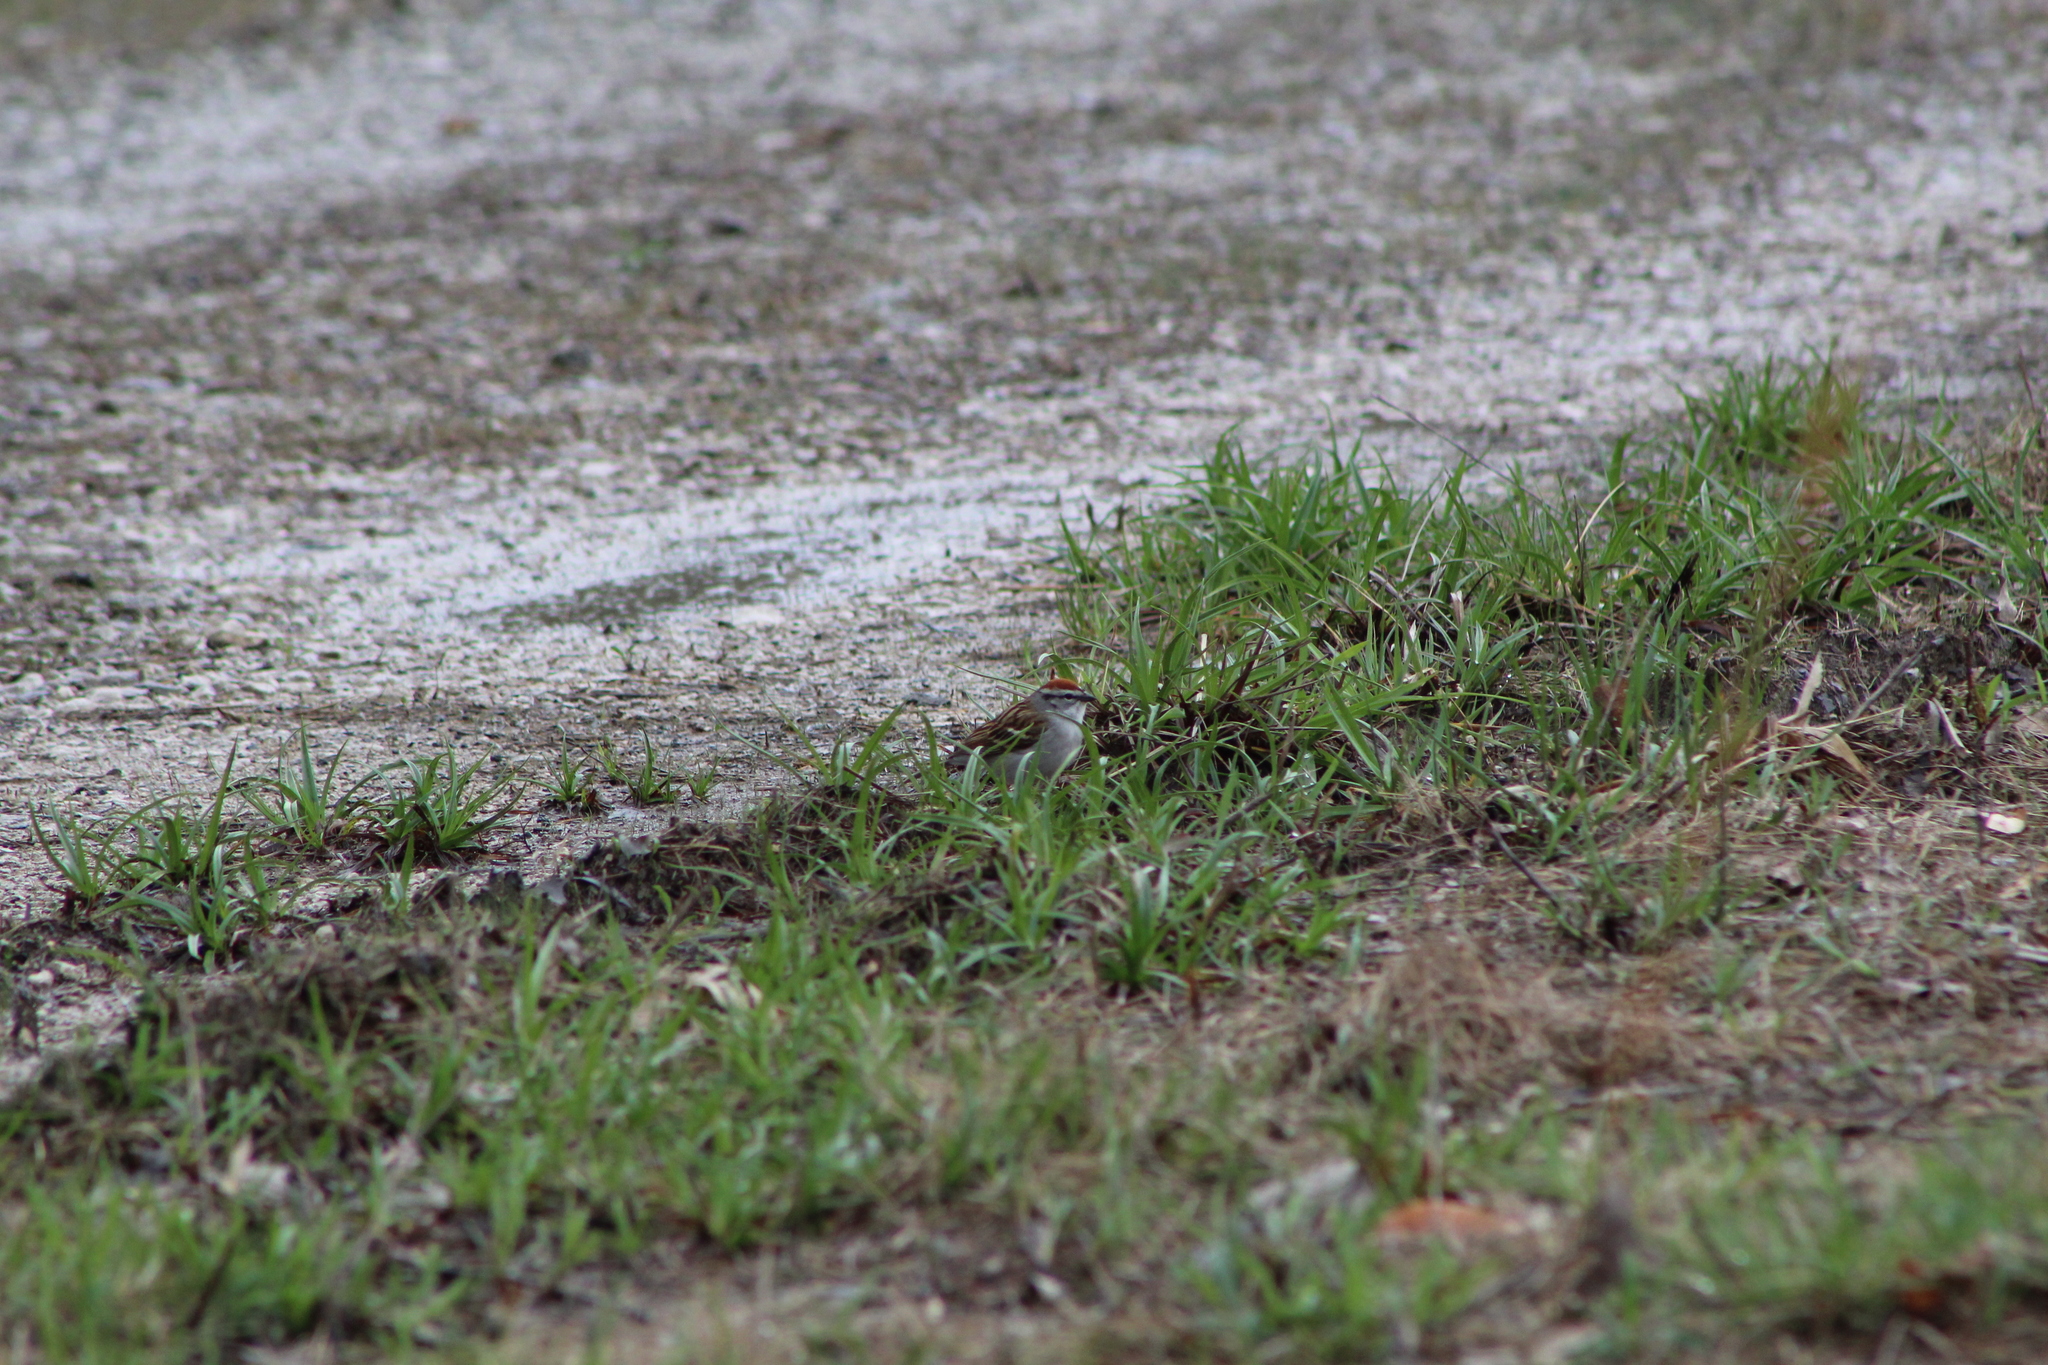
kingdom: Animalia
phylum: Chordata
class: Aves
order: Passeriformes
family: Passerellidae
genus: Spizella
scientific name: Spizella passerina
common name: Chipping sparrow
